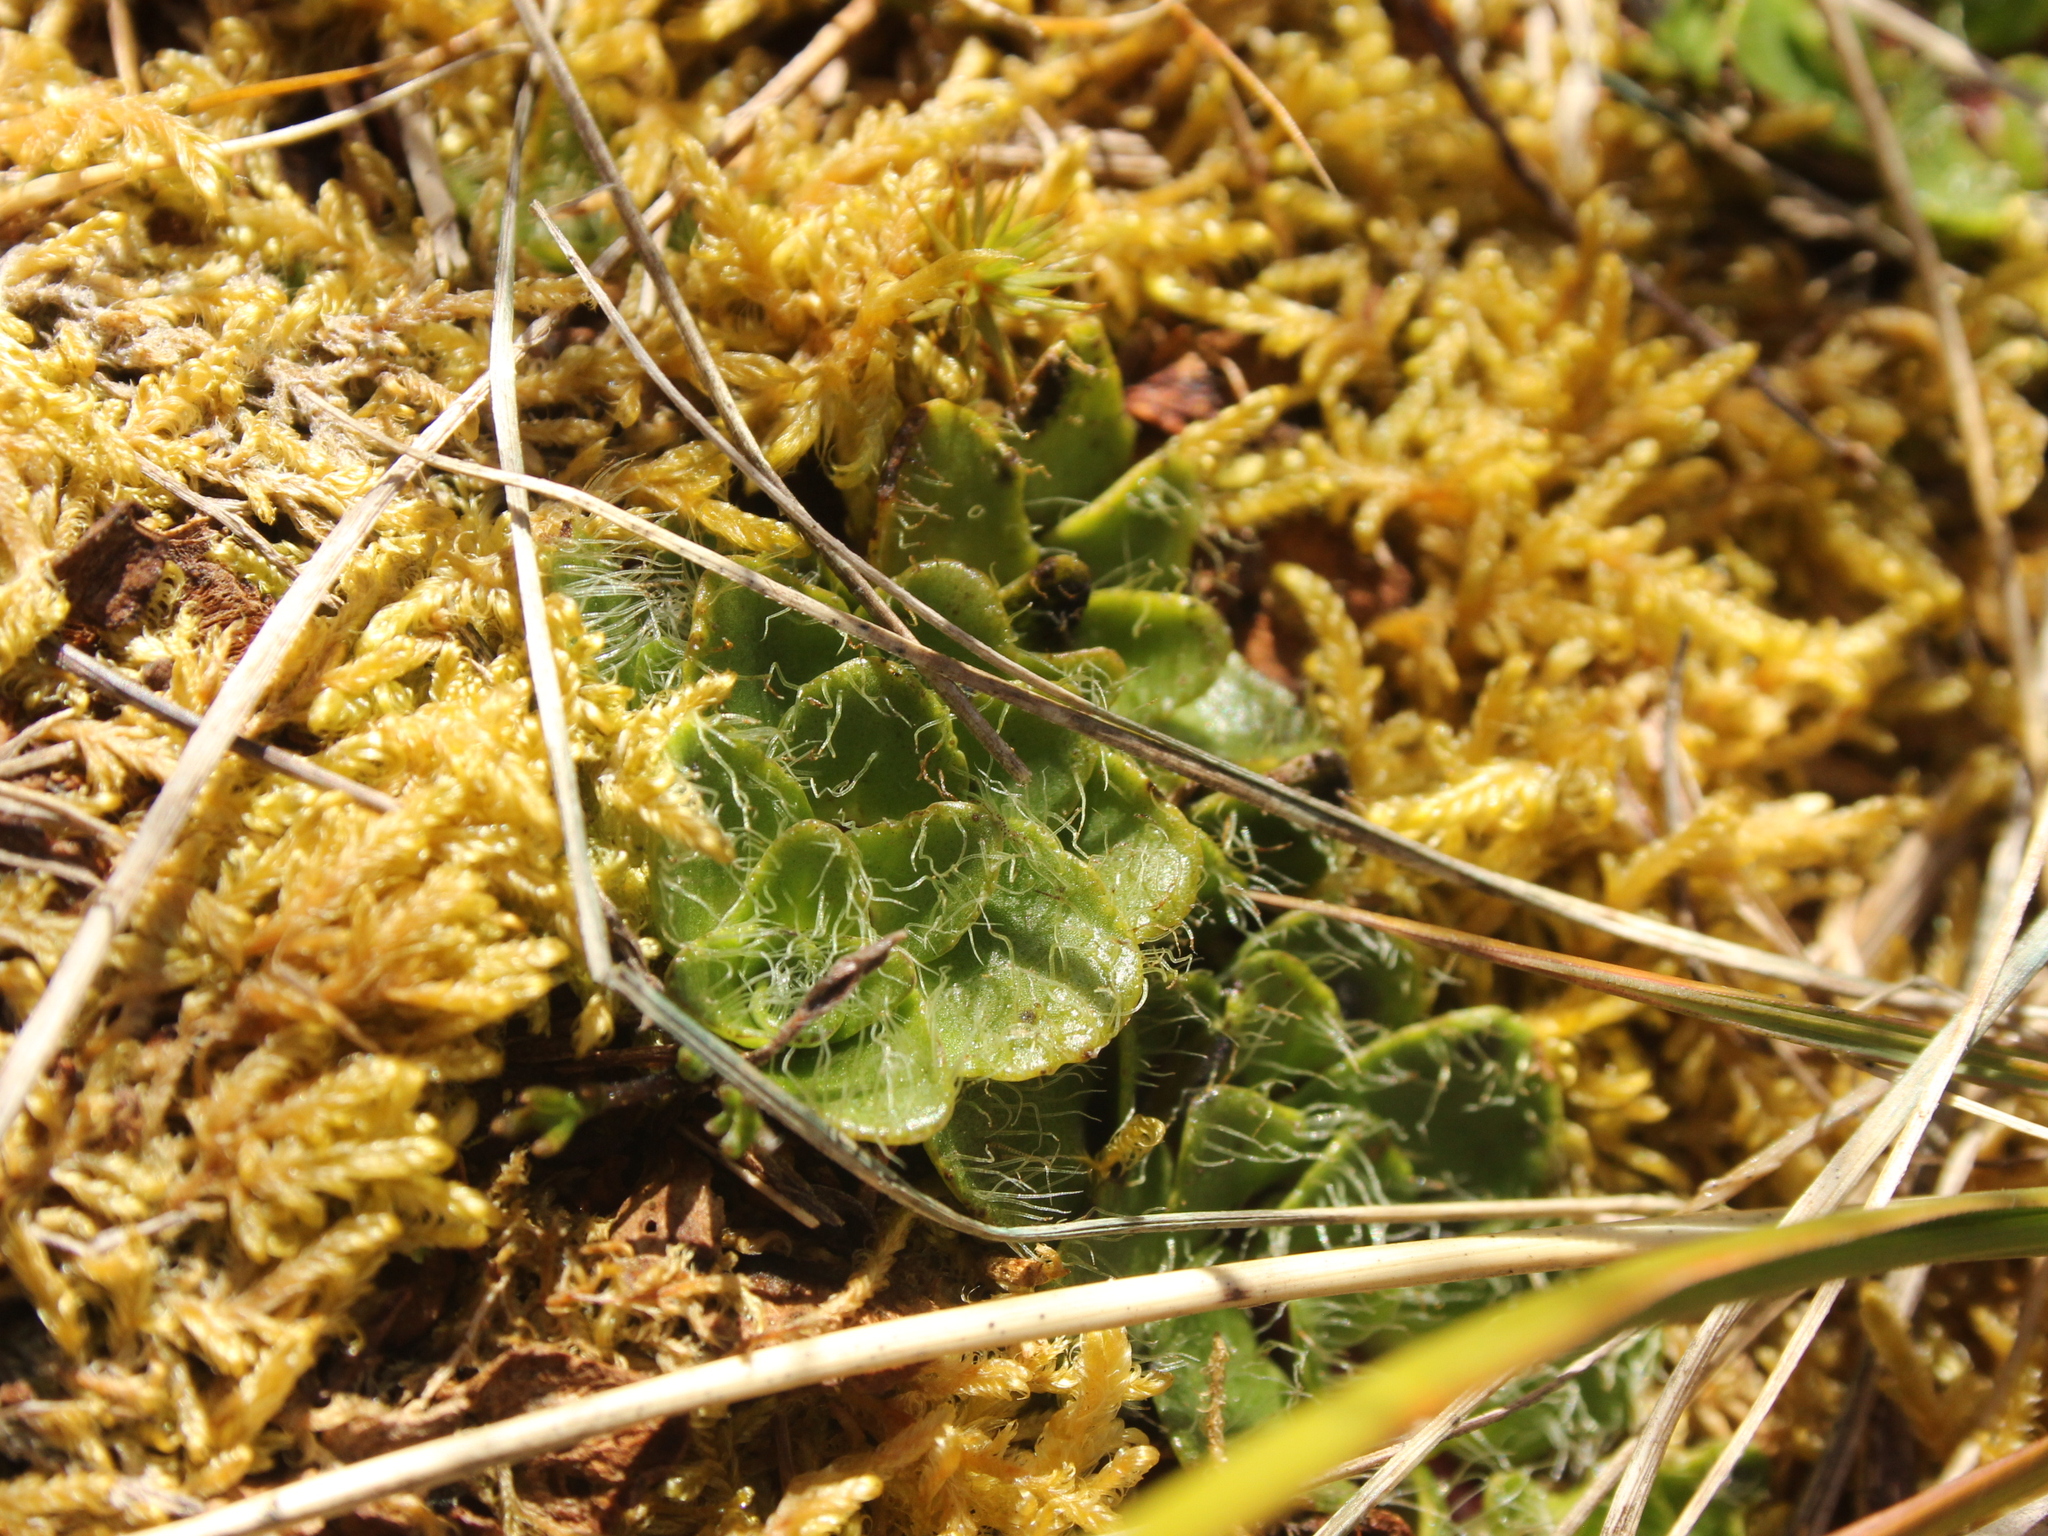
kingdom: Plantae
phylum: Tracheophyta
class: Magnoliopsida
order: Lamiales
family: Plantaginaceae
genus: Ourisia
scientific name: Ourisia glandulosa
